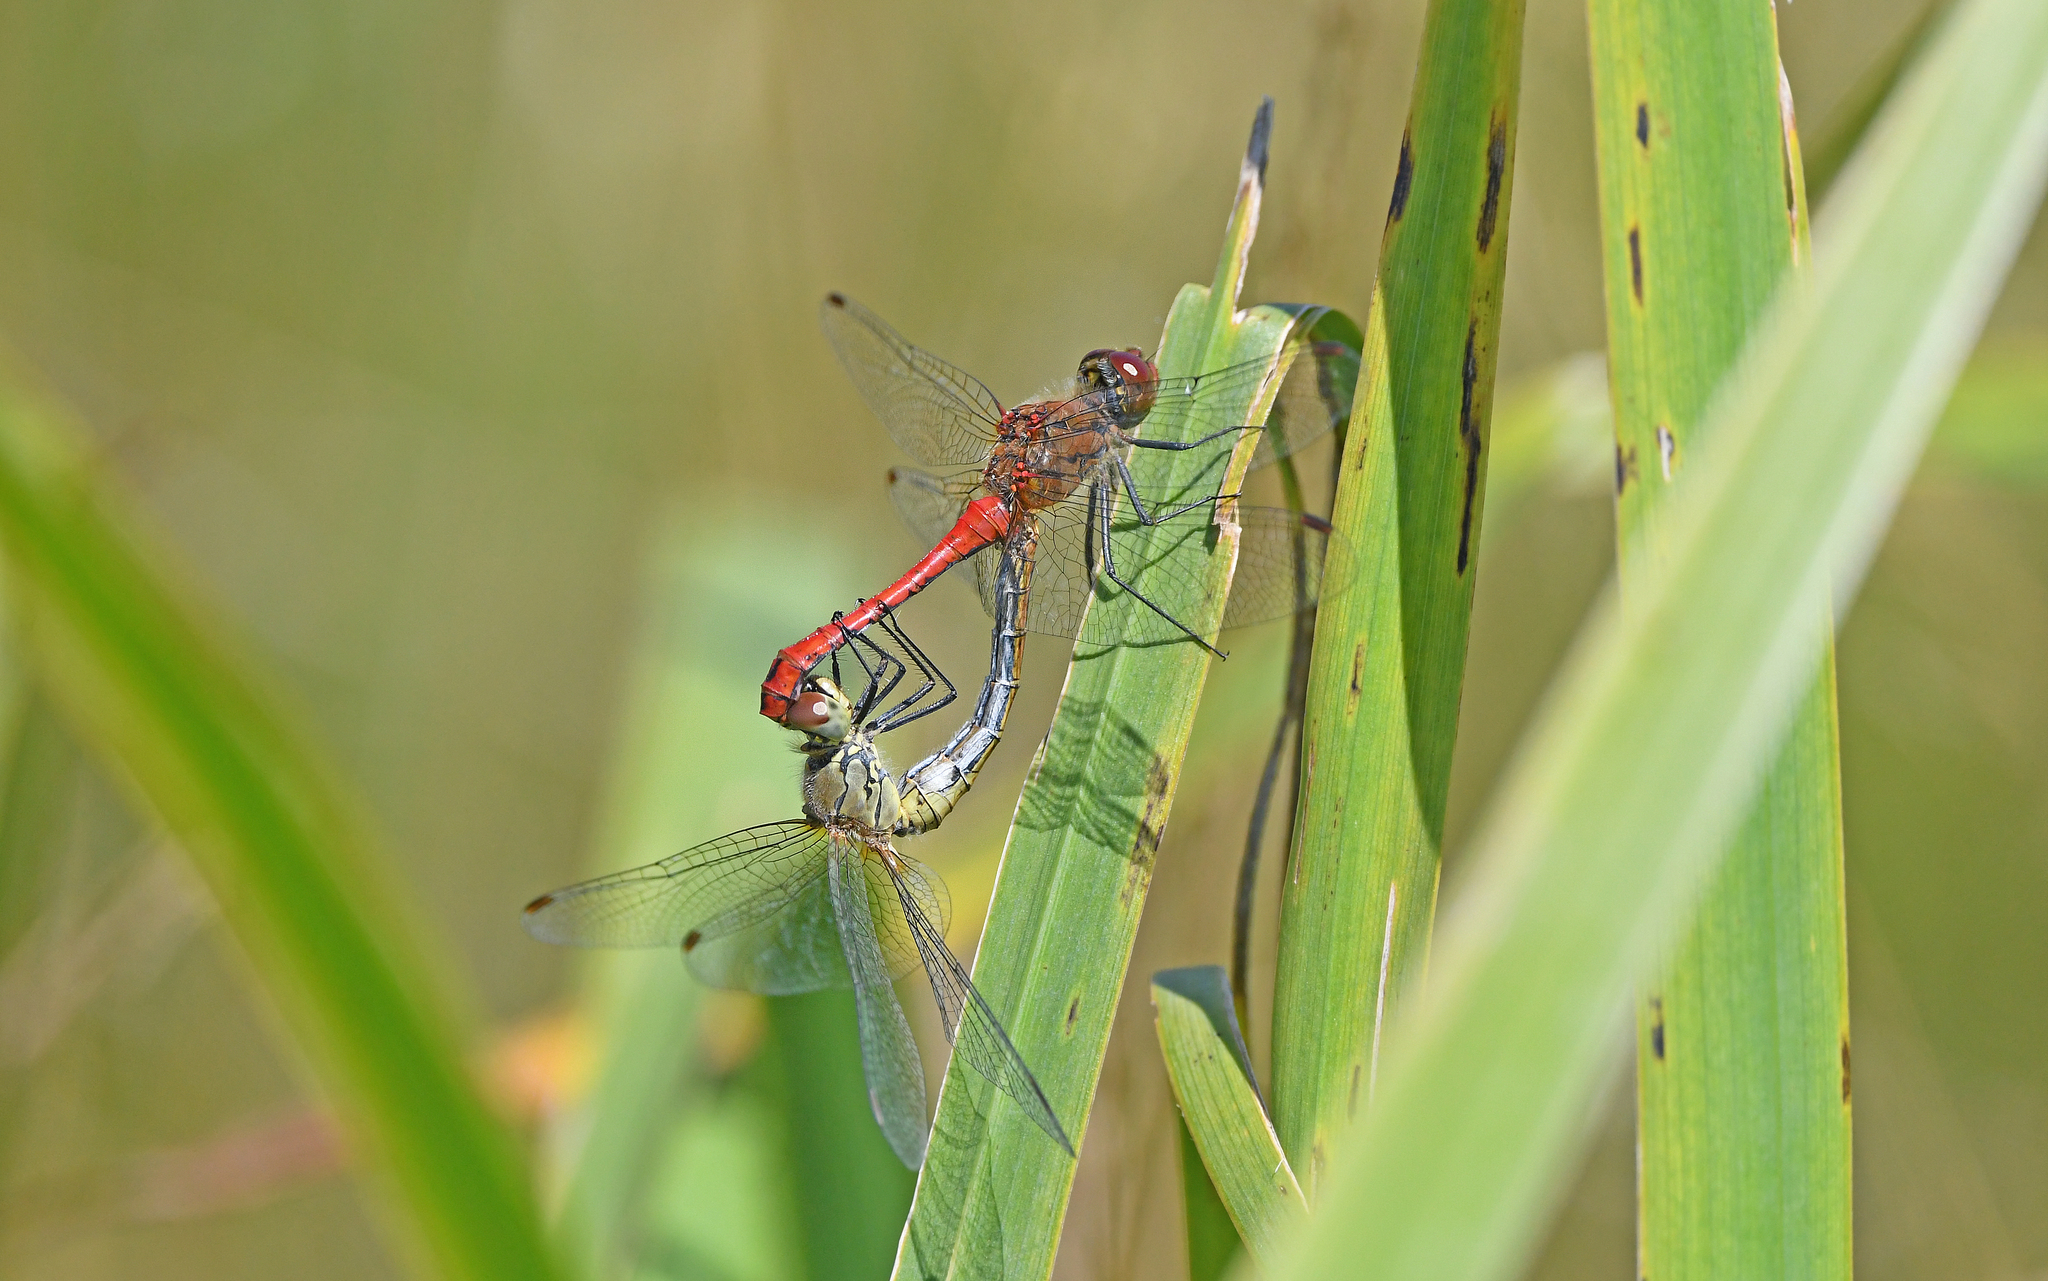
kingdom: Animalia
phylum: Arthropoda
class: Insecta
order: Odonata
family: Libellulidae
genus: Sympetrum
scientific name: Sympetrum sanguineum
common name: Ruddy darter
